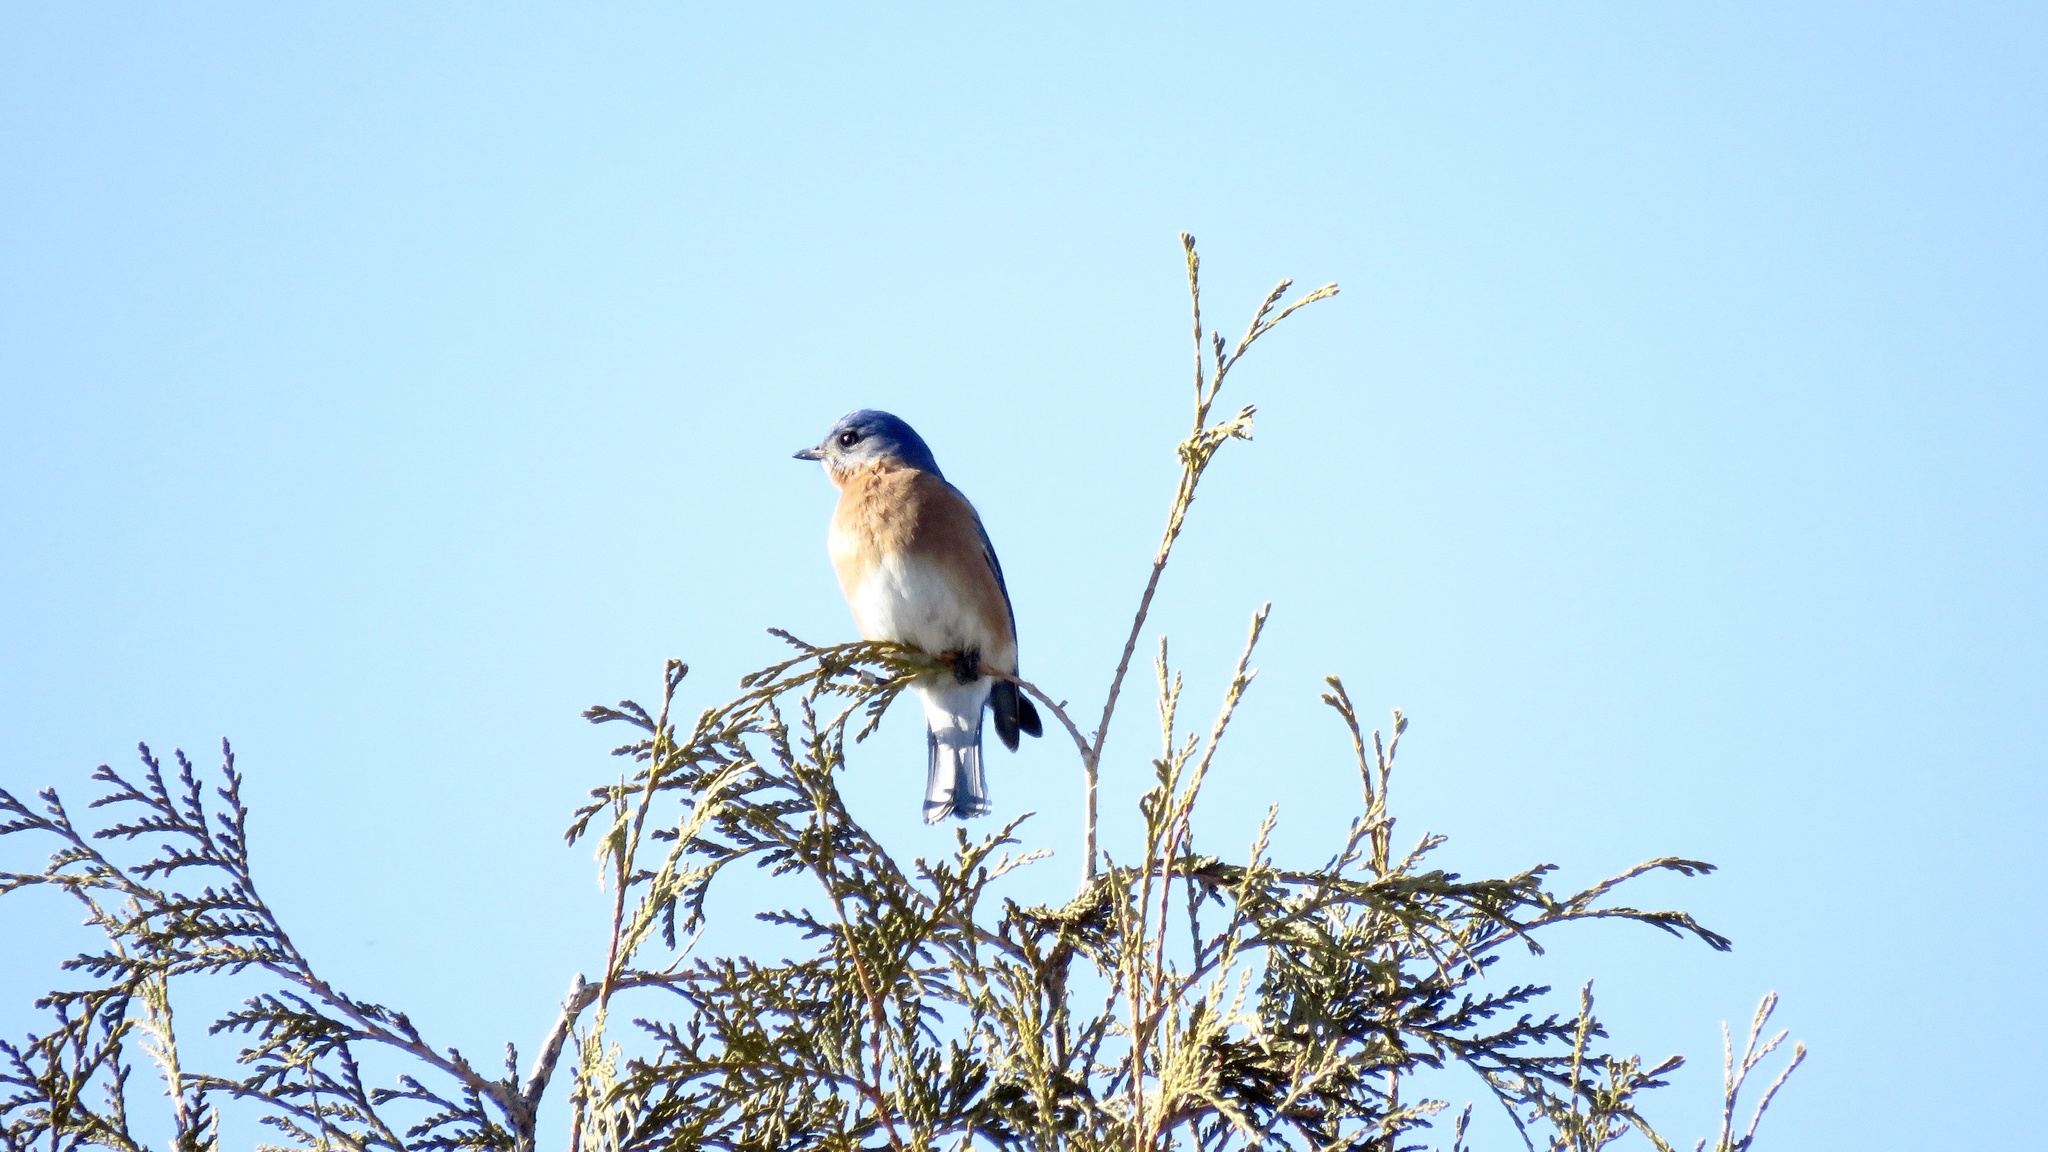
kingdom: Animalia
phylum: Chordata
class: Aves
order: Passeriformes
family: Turdidae
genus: Sialia
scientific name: Sialia sialis
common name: Eastern bluebird
